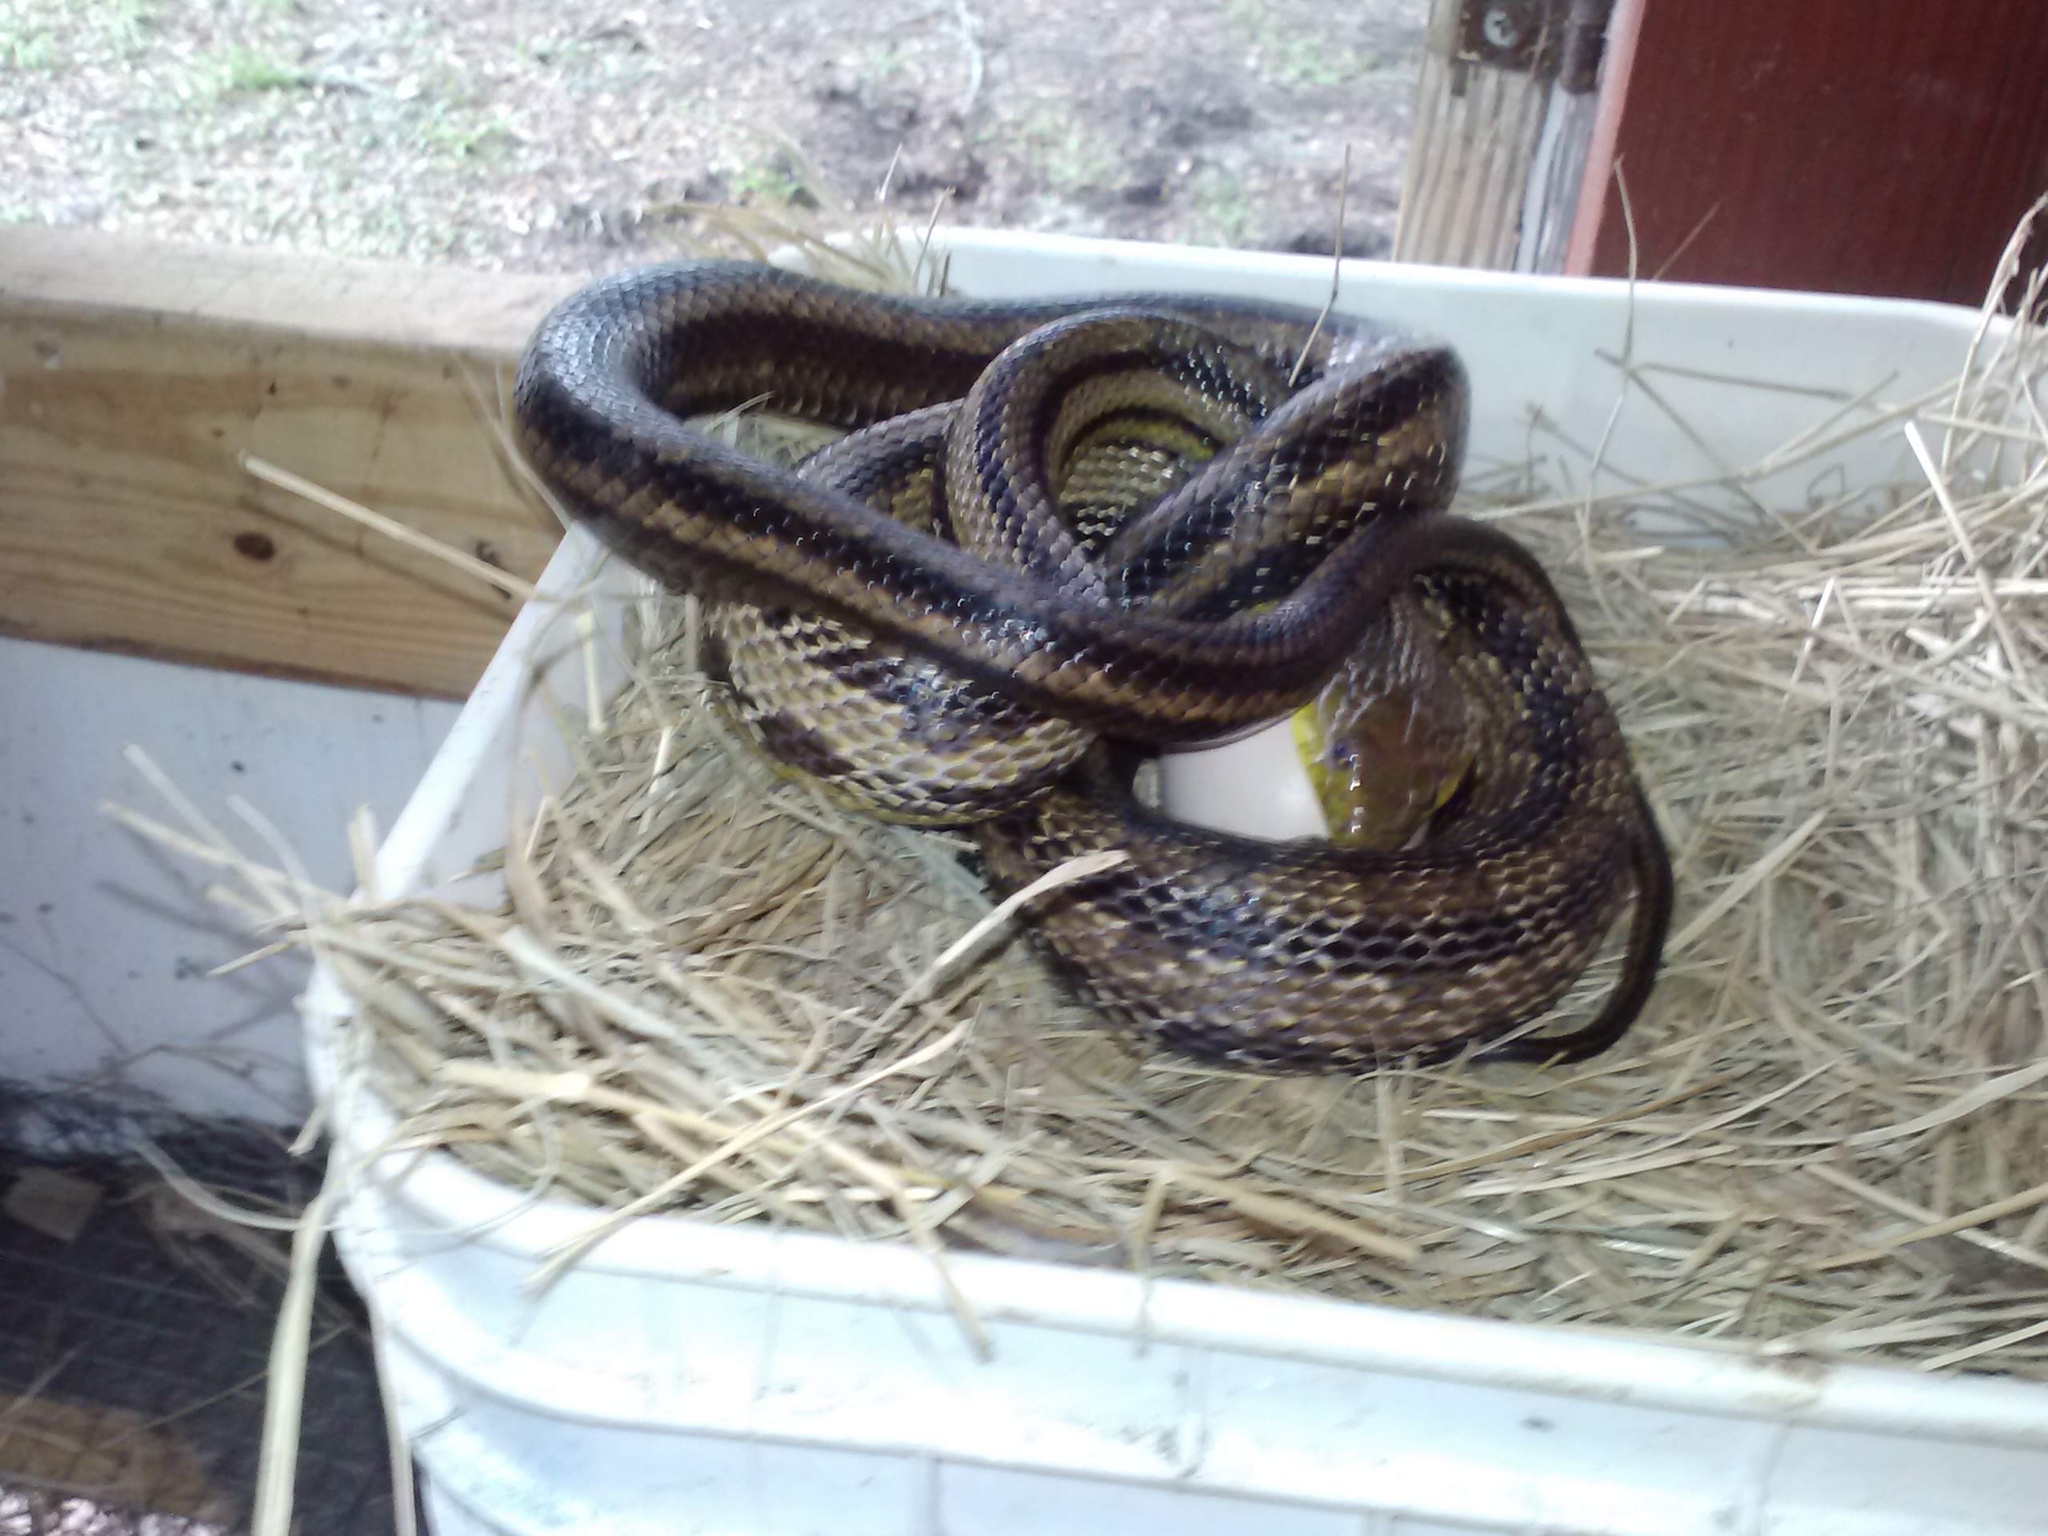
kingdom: Animalia
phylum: Chordata
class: Squamata
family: Colubridae
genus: Pantherophis
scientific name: Pantherophis alleghaniensis
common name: Eastern rat snake
